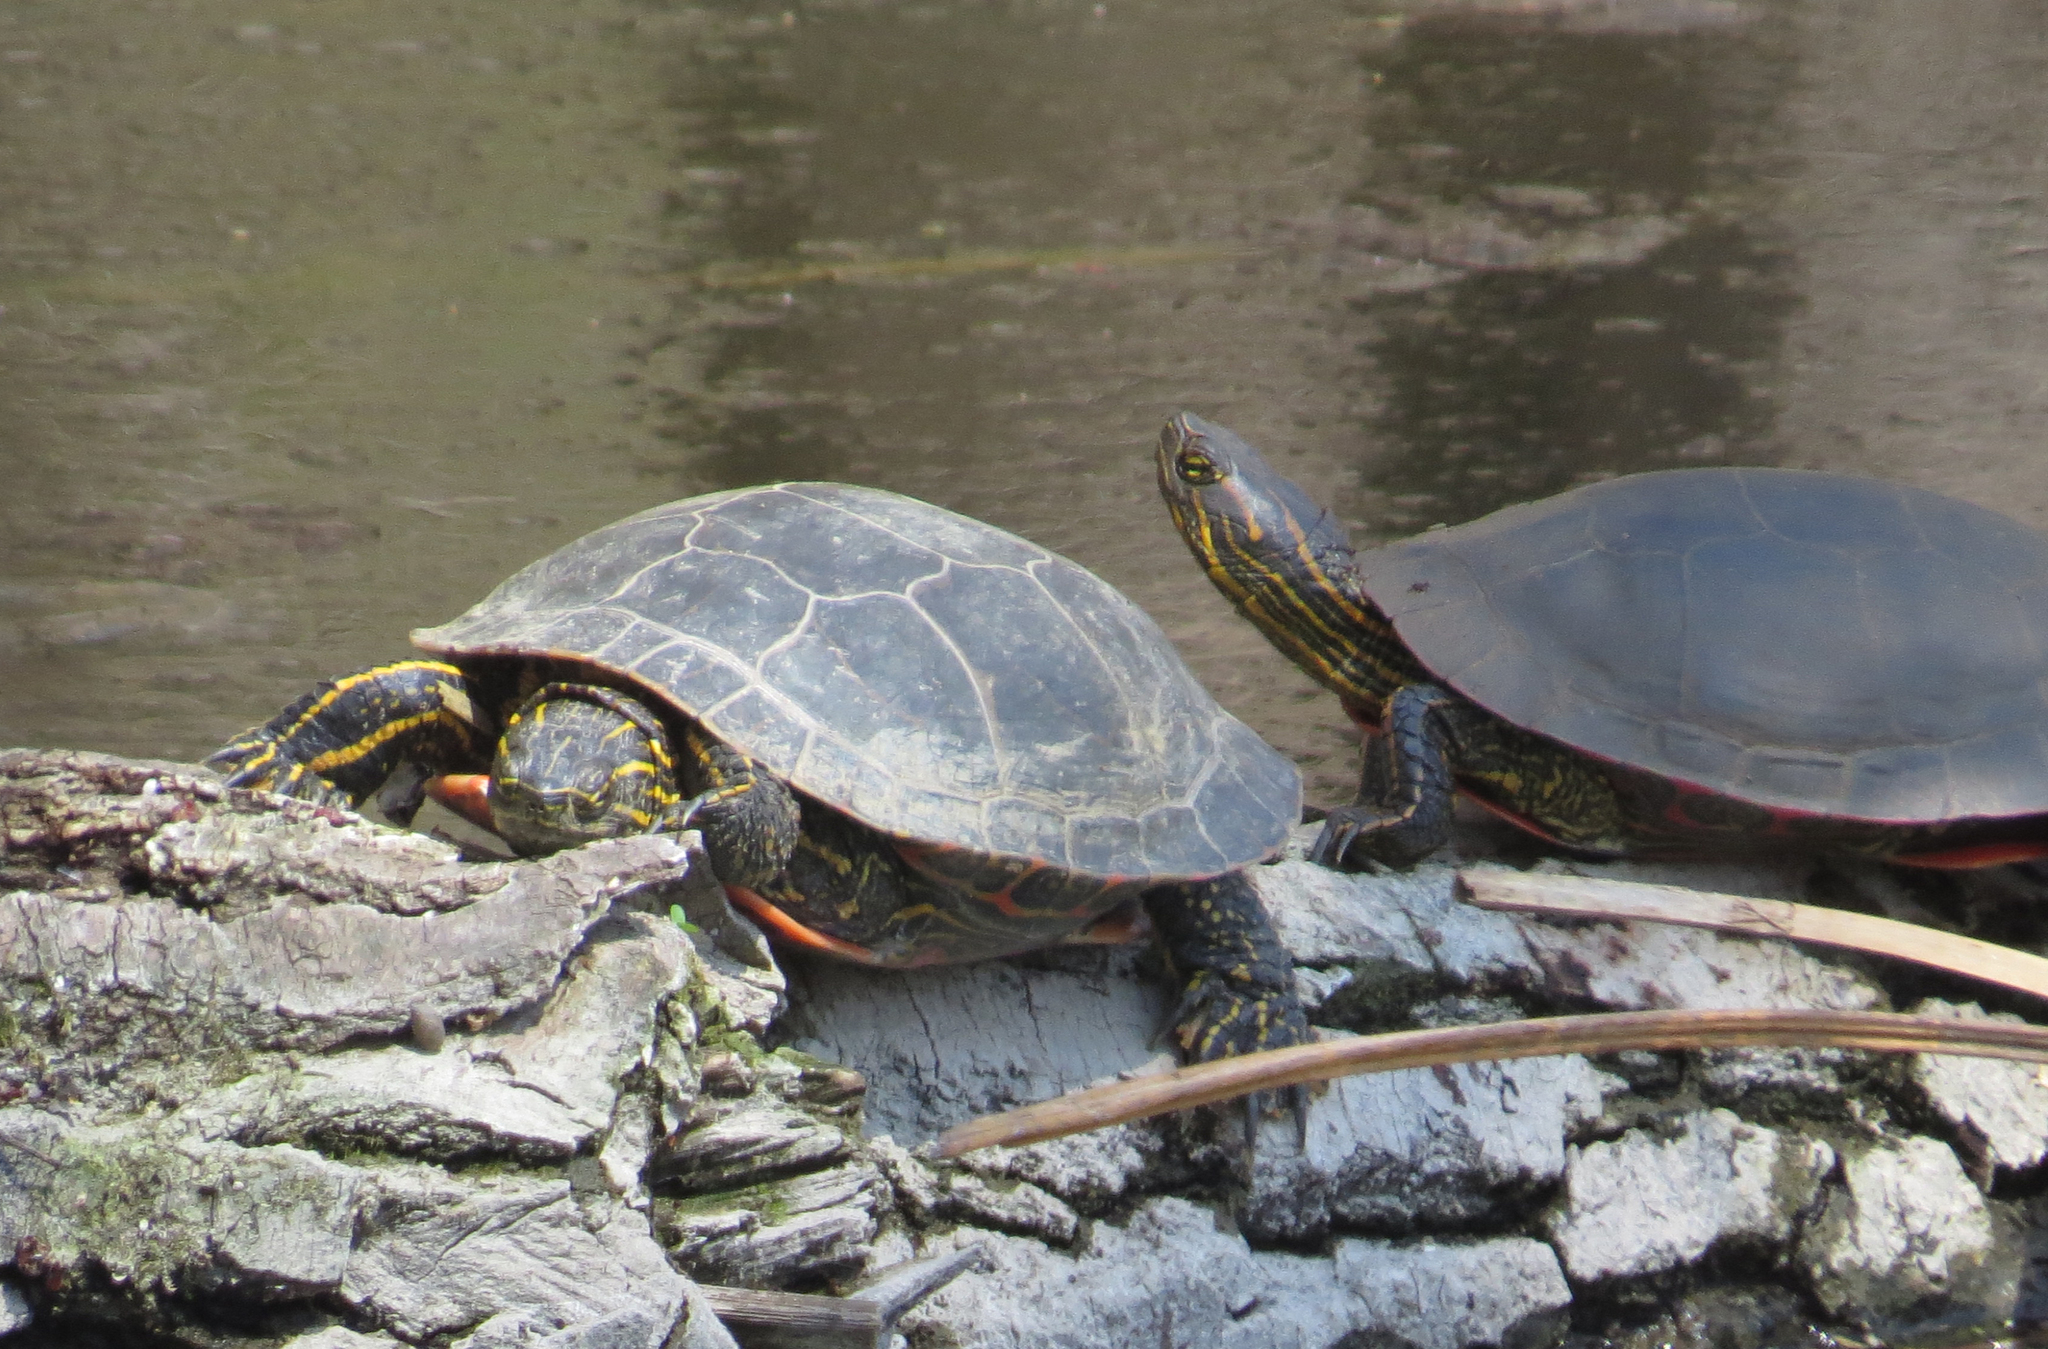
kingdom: Animalia
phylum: Chordata
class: Testudines
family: Emydidae
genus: Chrysemys
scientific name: Chrysemys picta
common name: Painted turtle
